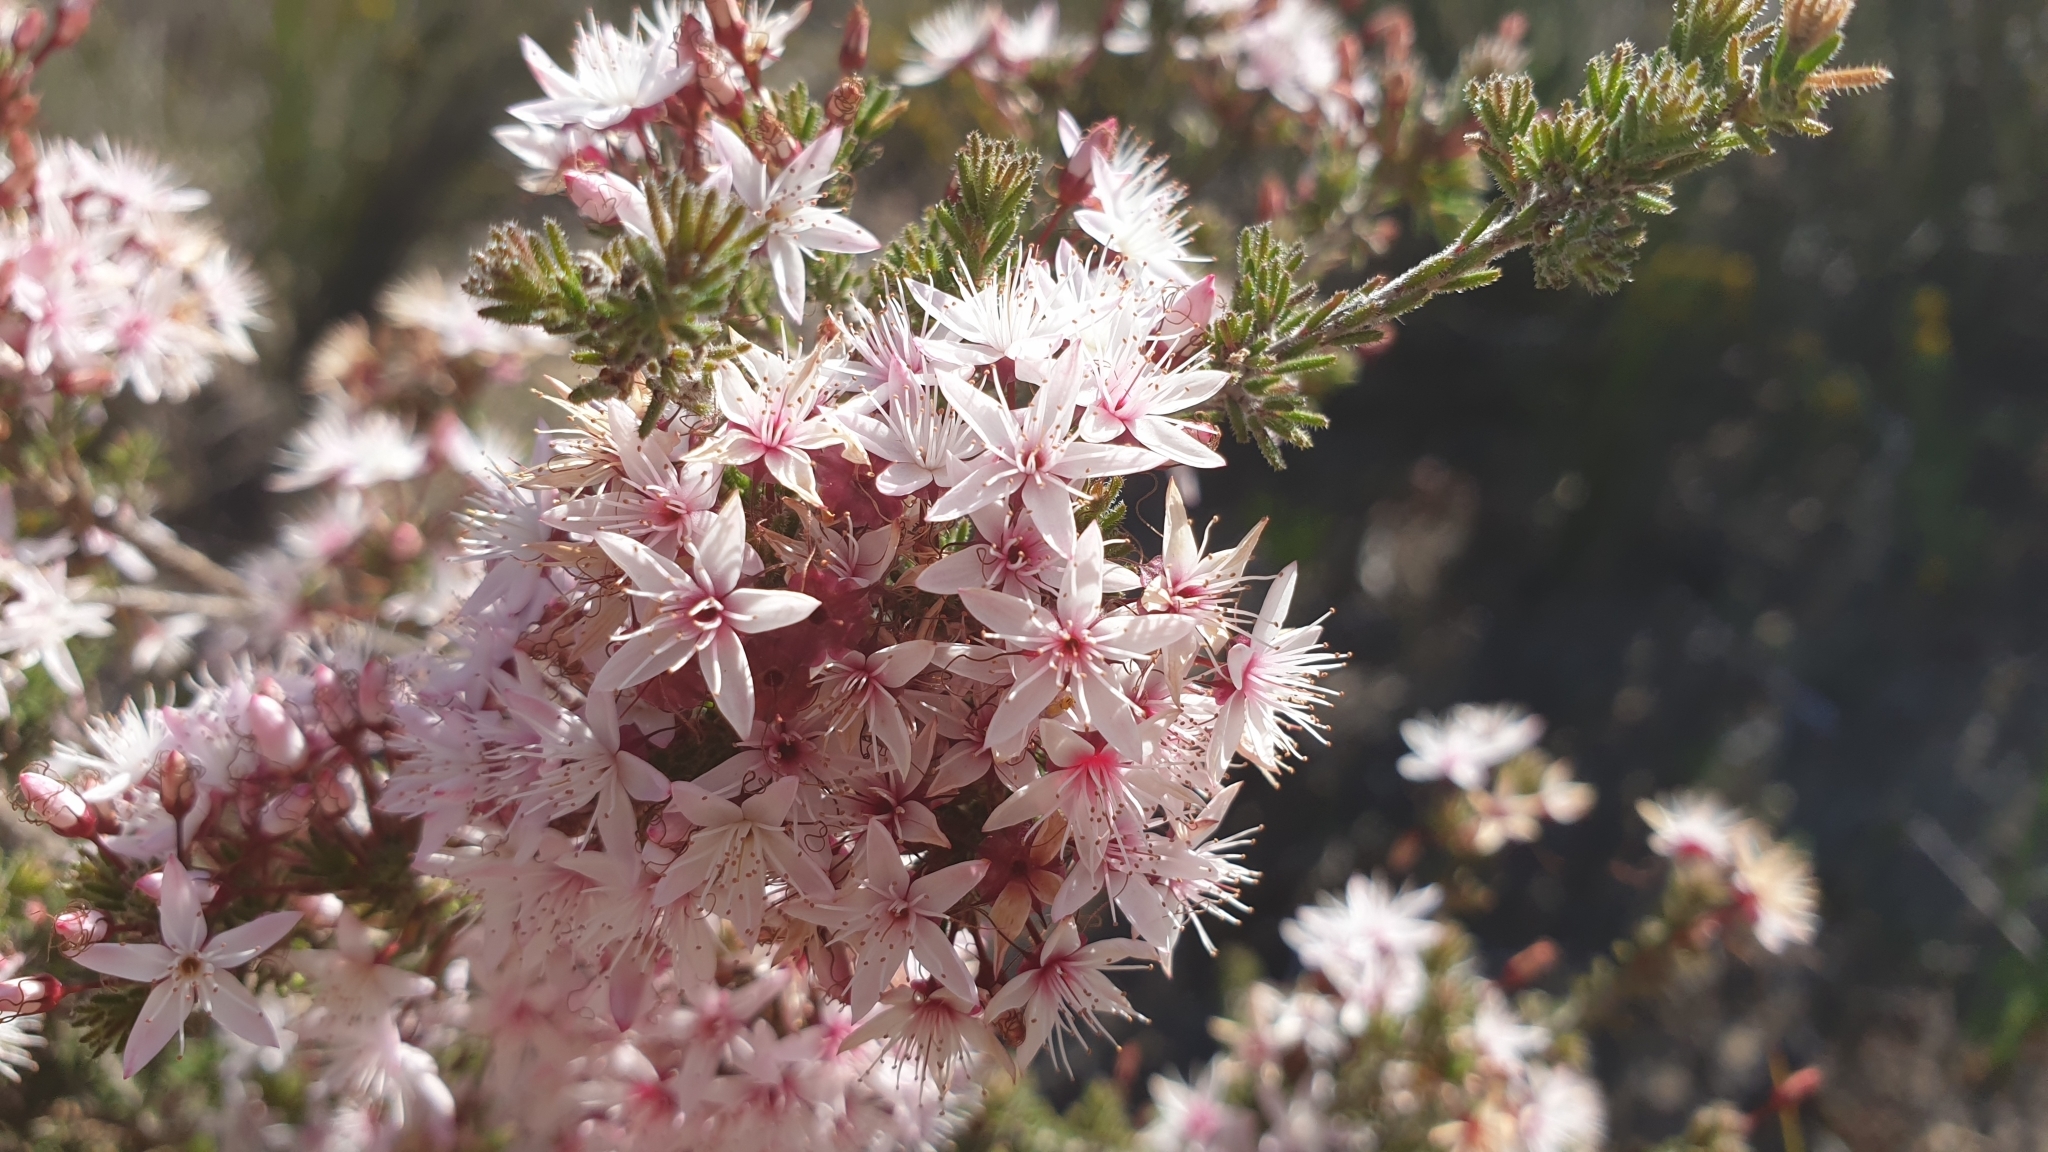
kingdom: Plantae
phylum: Tracheophyta
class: Magnoliopsida
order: Myrtales
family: Myrtaceae
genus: Calytrix
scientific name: Calytrix tetragona
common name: Common fringe myrtle
